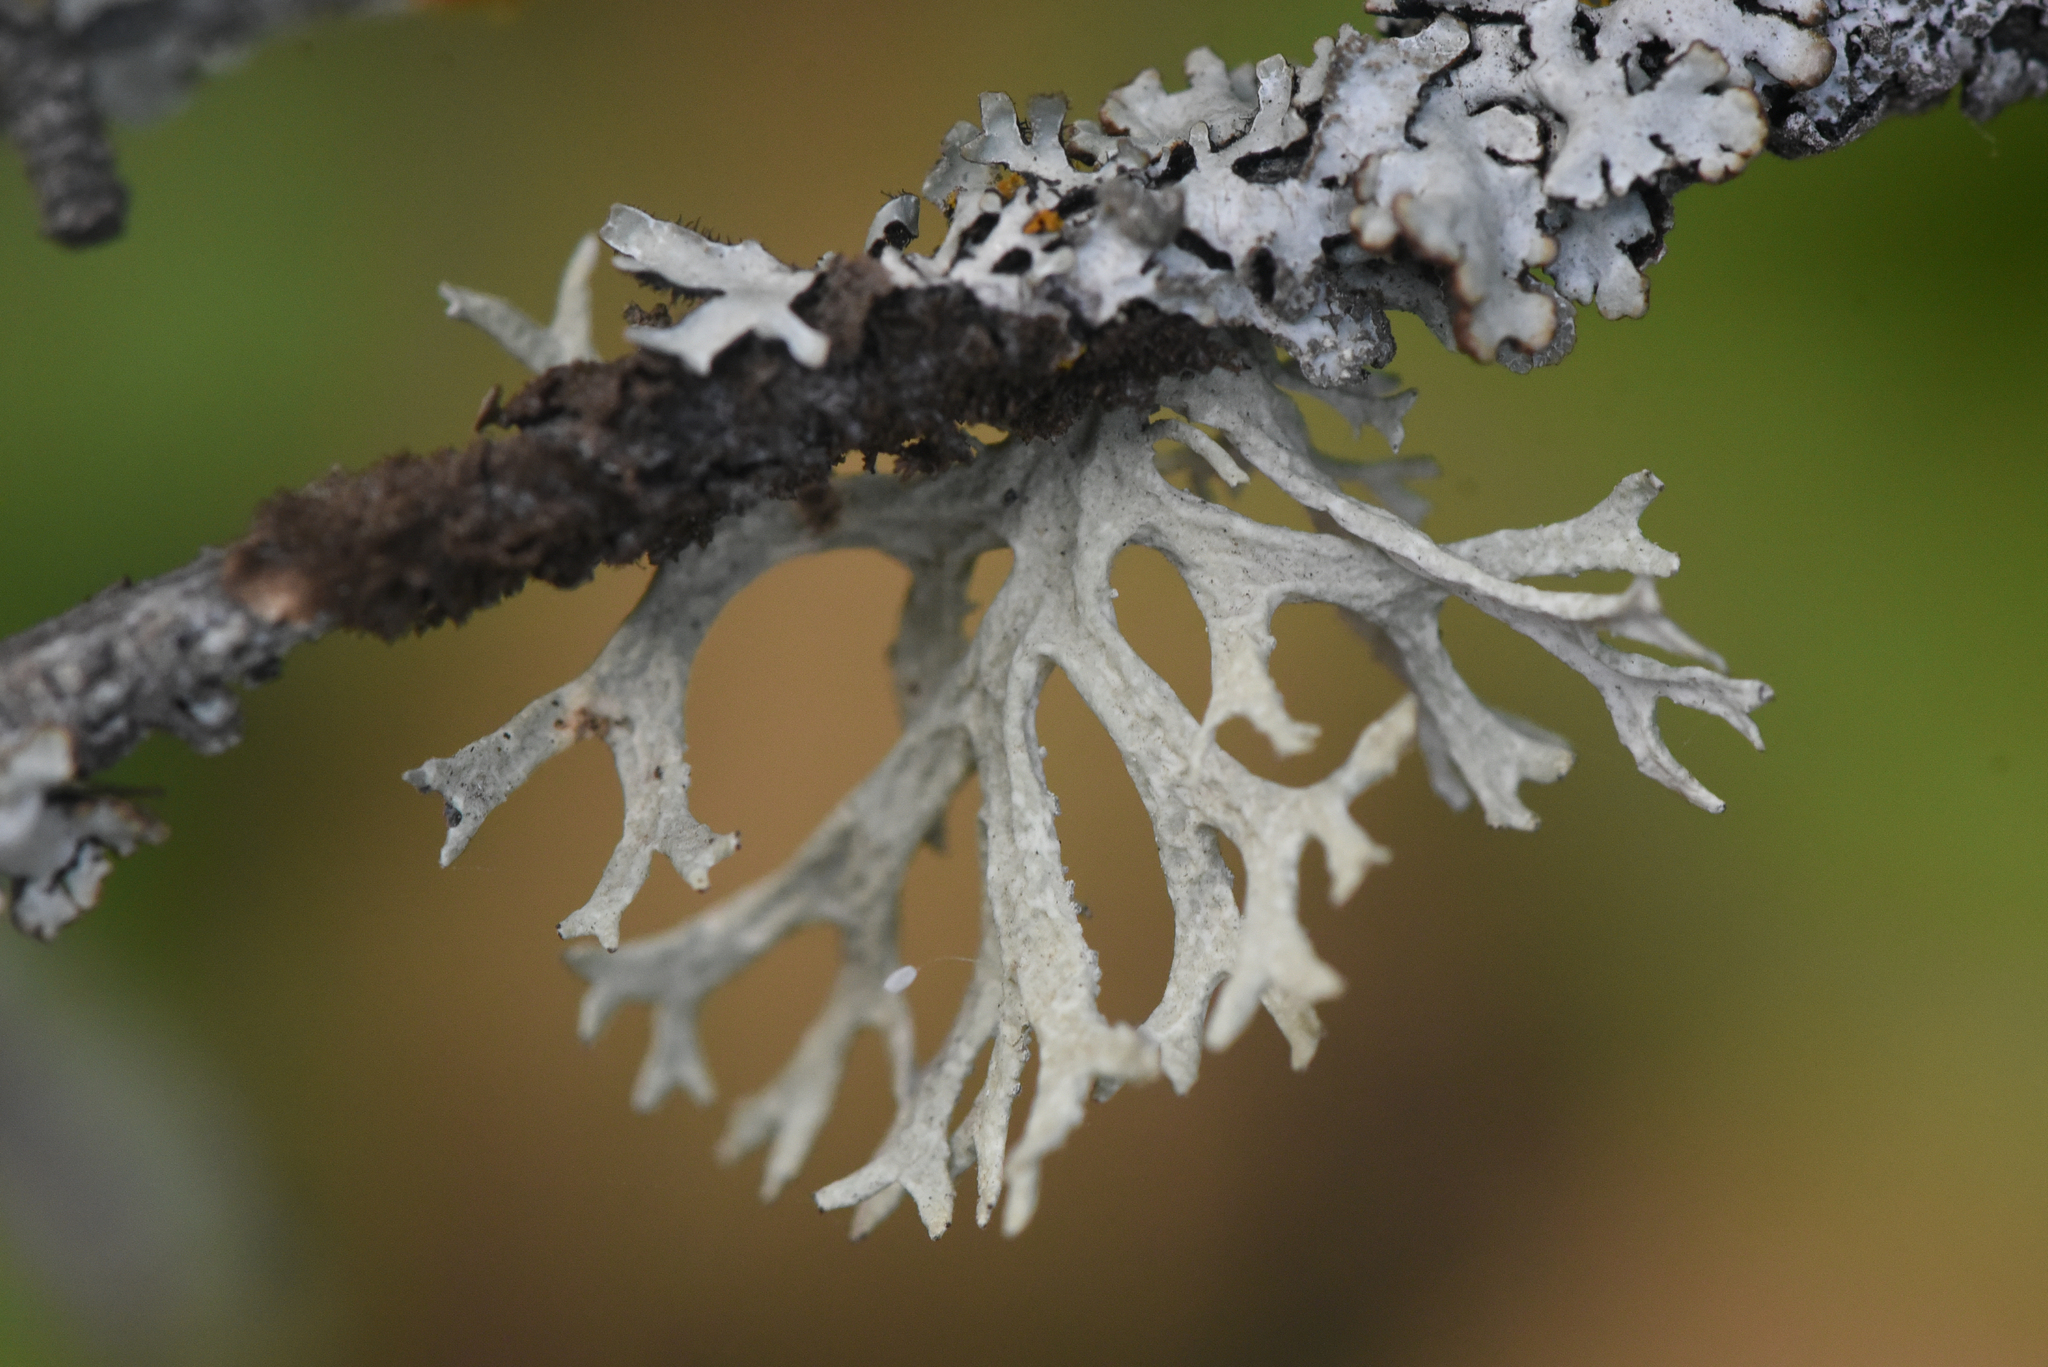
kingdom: Fungi
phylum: Ascomycota
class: Lecanoromycetes
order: Lecanorales
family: Parmeliaceae
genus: Evernia
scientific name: Evernia prunastri
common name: Oak moss
